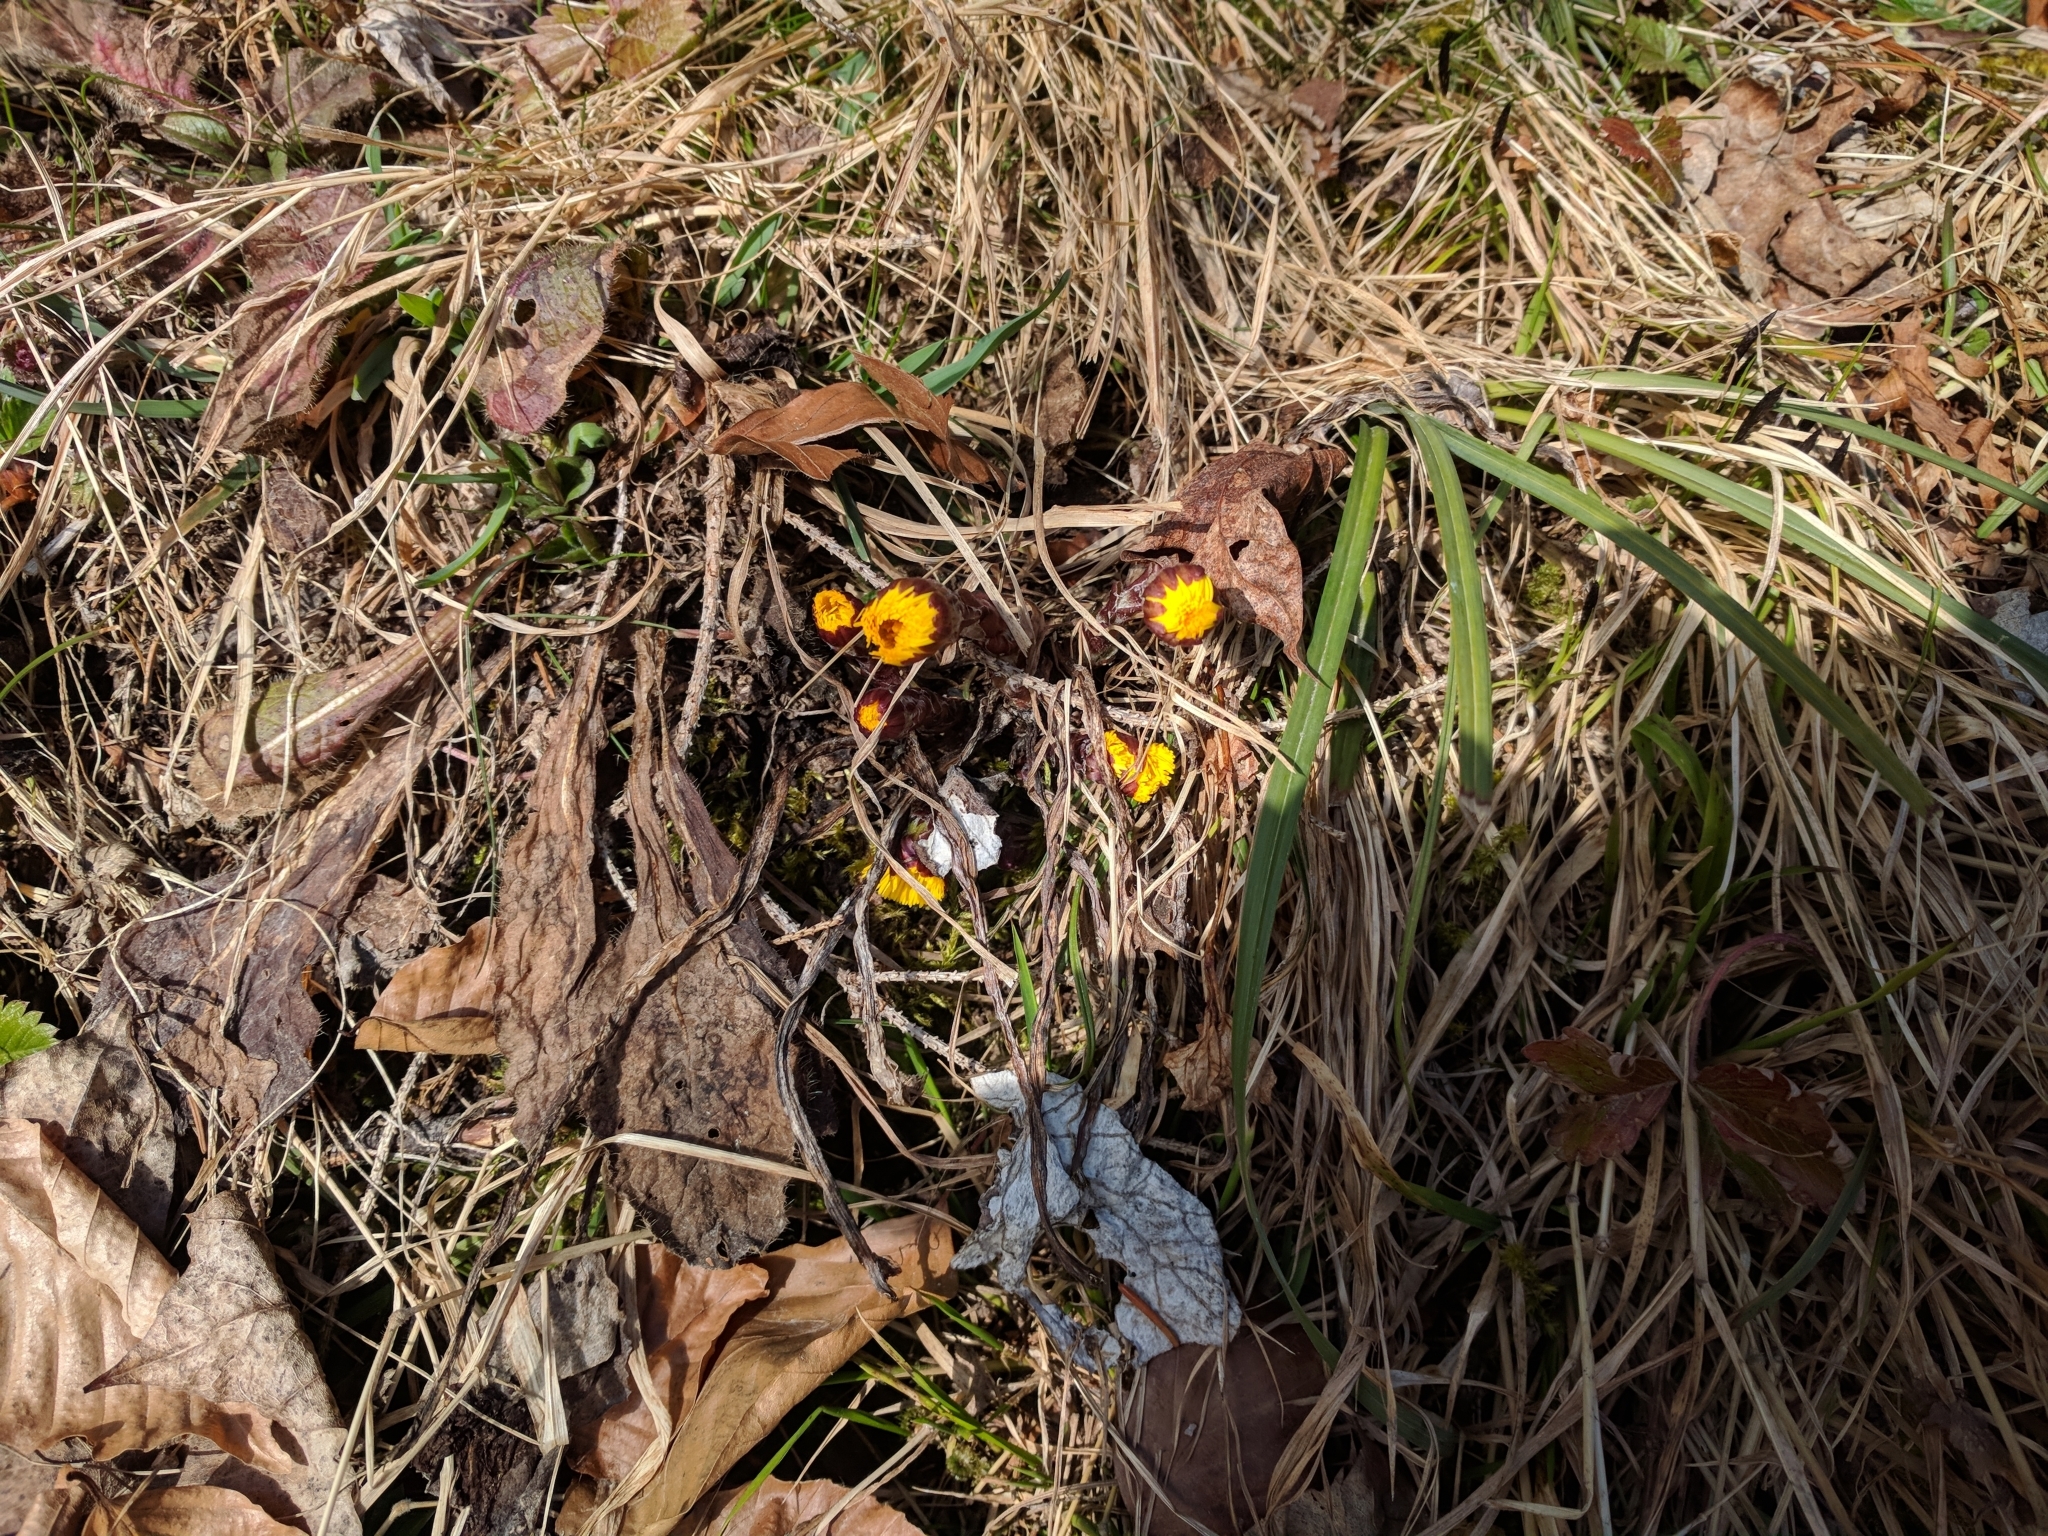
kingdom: Plantae
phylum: Tracheophyta
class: Magnoliopsida
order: Asterales
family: Asteraceae
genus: Tussilago
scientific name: Tussilago farfara
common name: Coltsfoot
